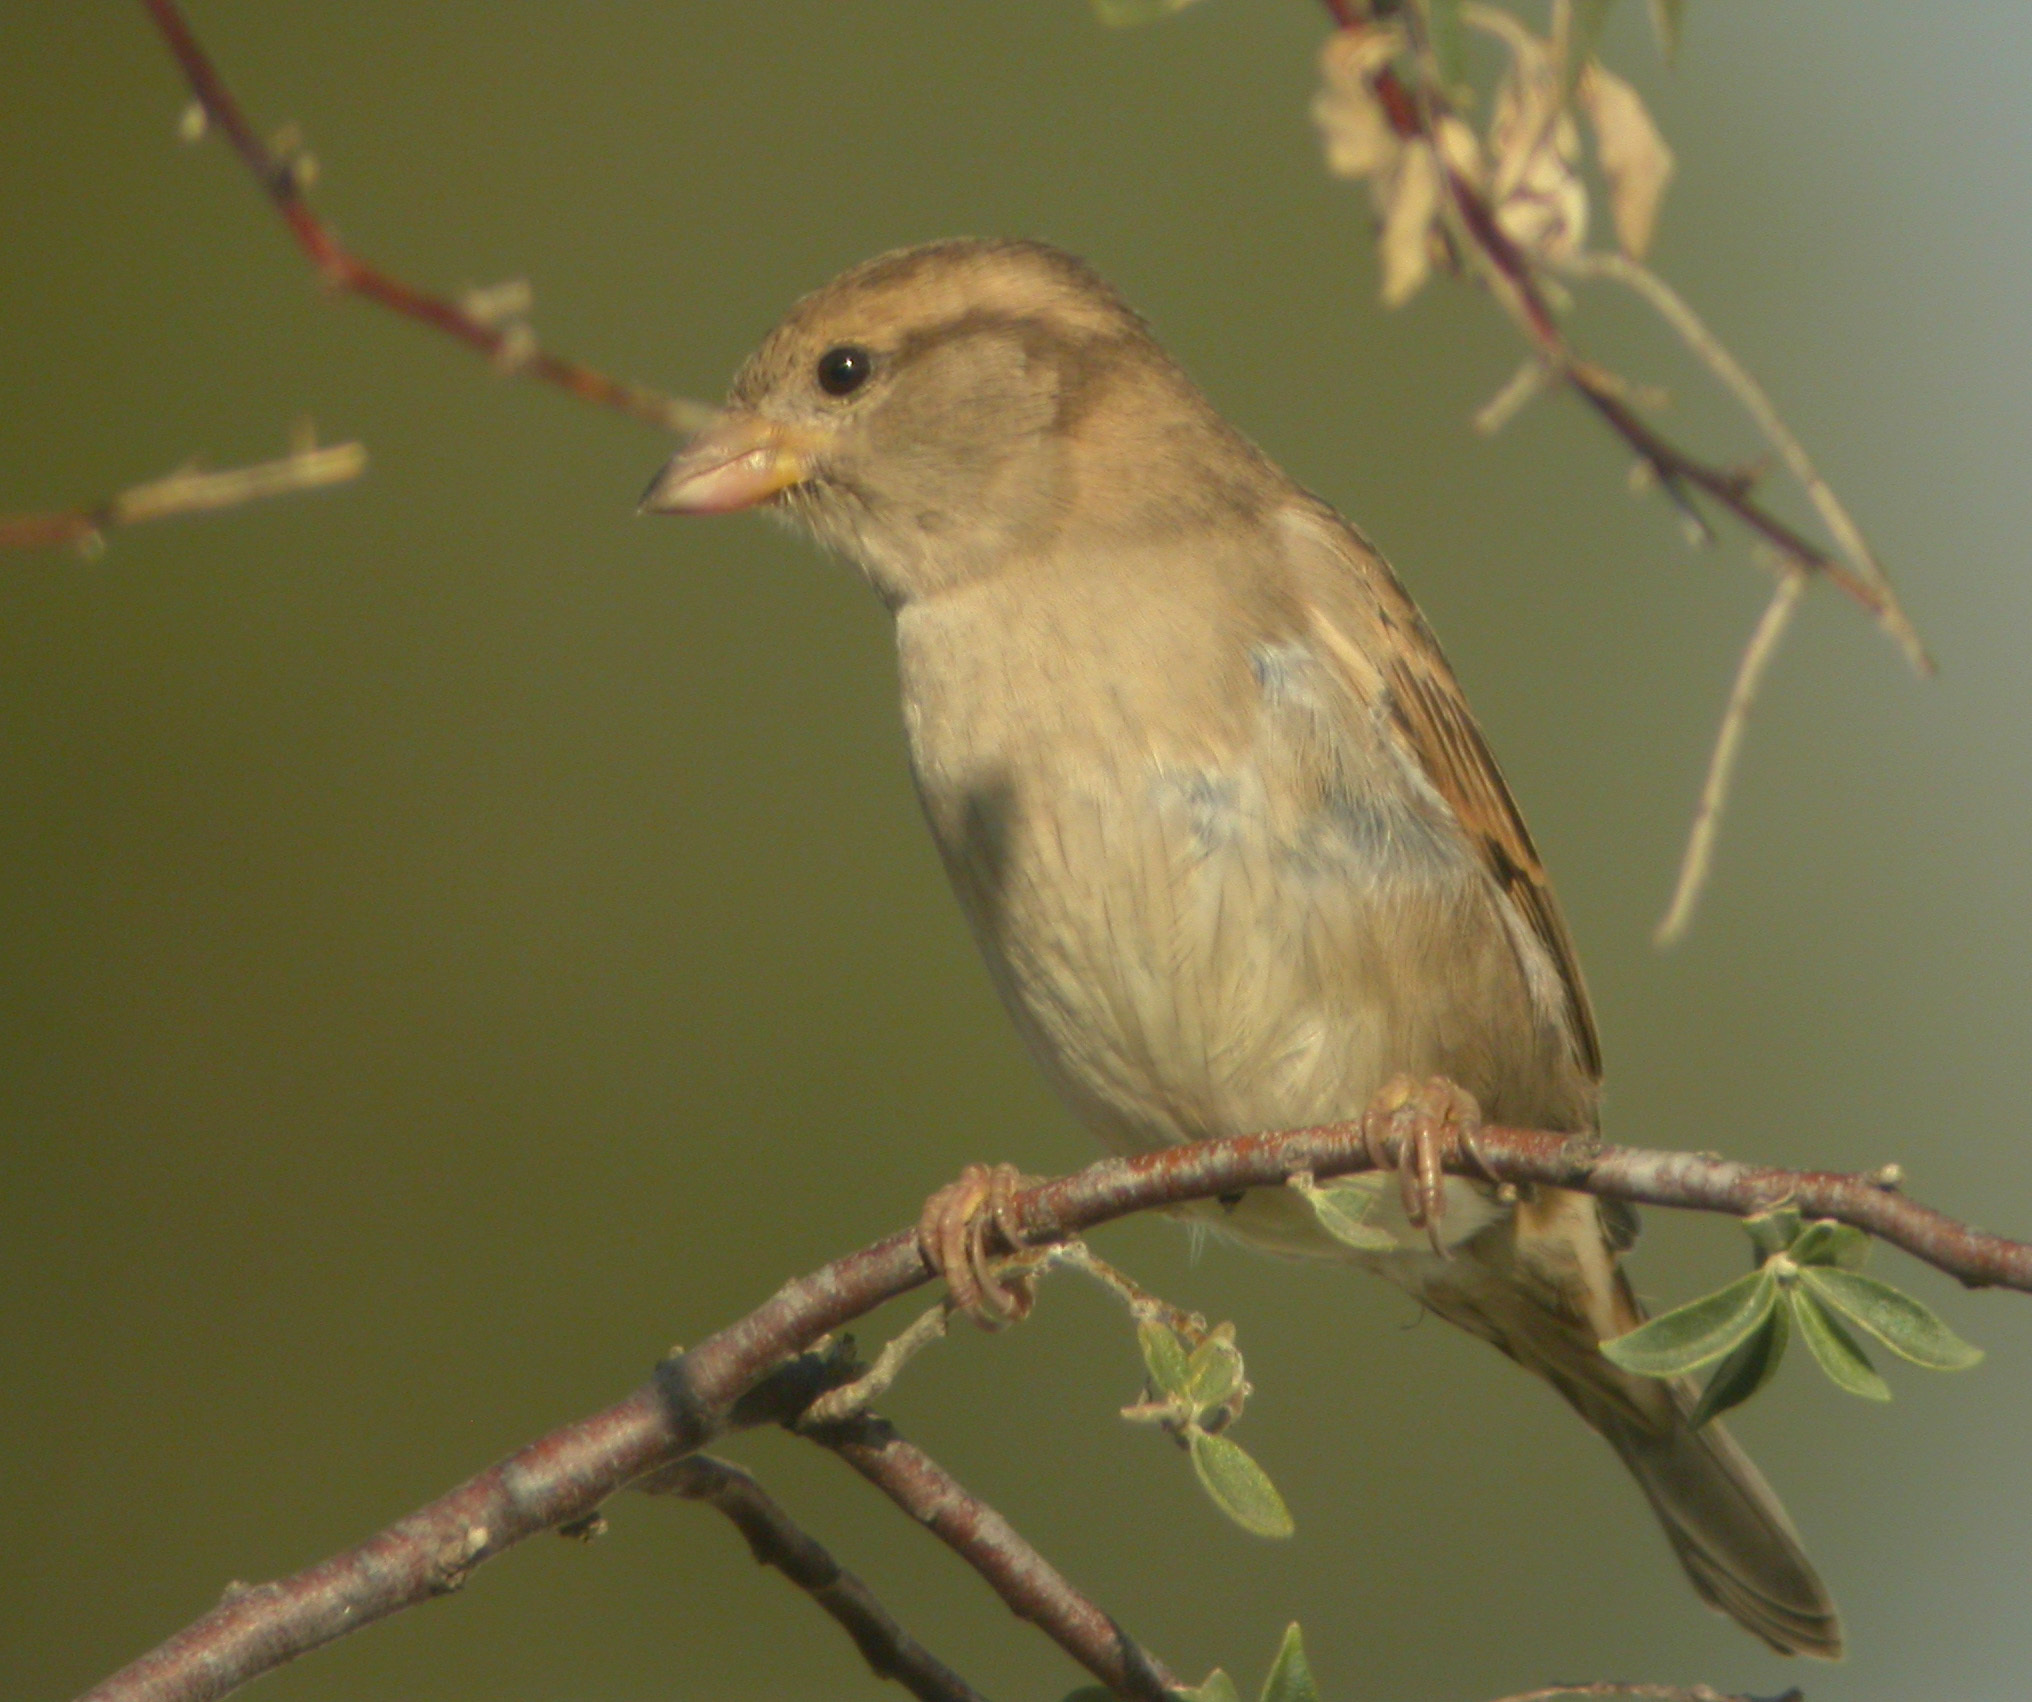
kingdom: Animalia
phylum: Chordata
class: Aves
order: Passeriformes
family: Passeridae
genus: Passer
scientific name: Passer domesticus
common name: House sparrow
